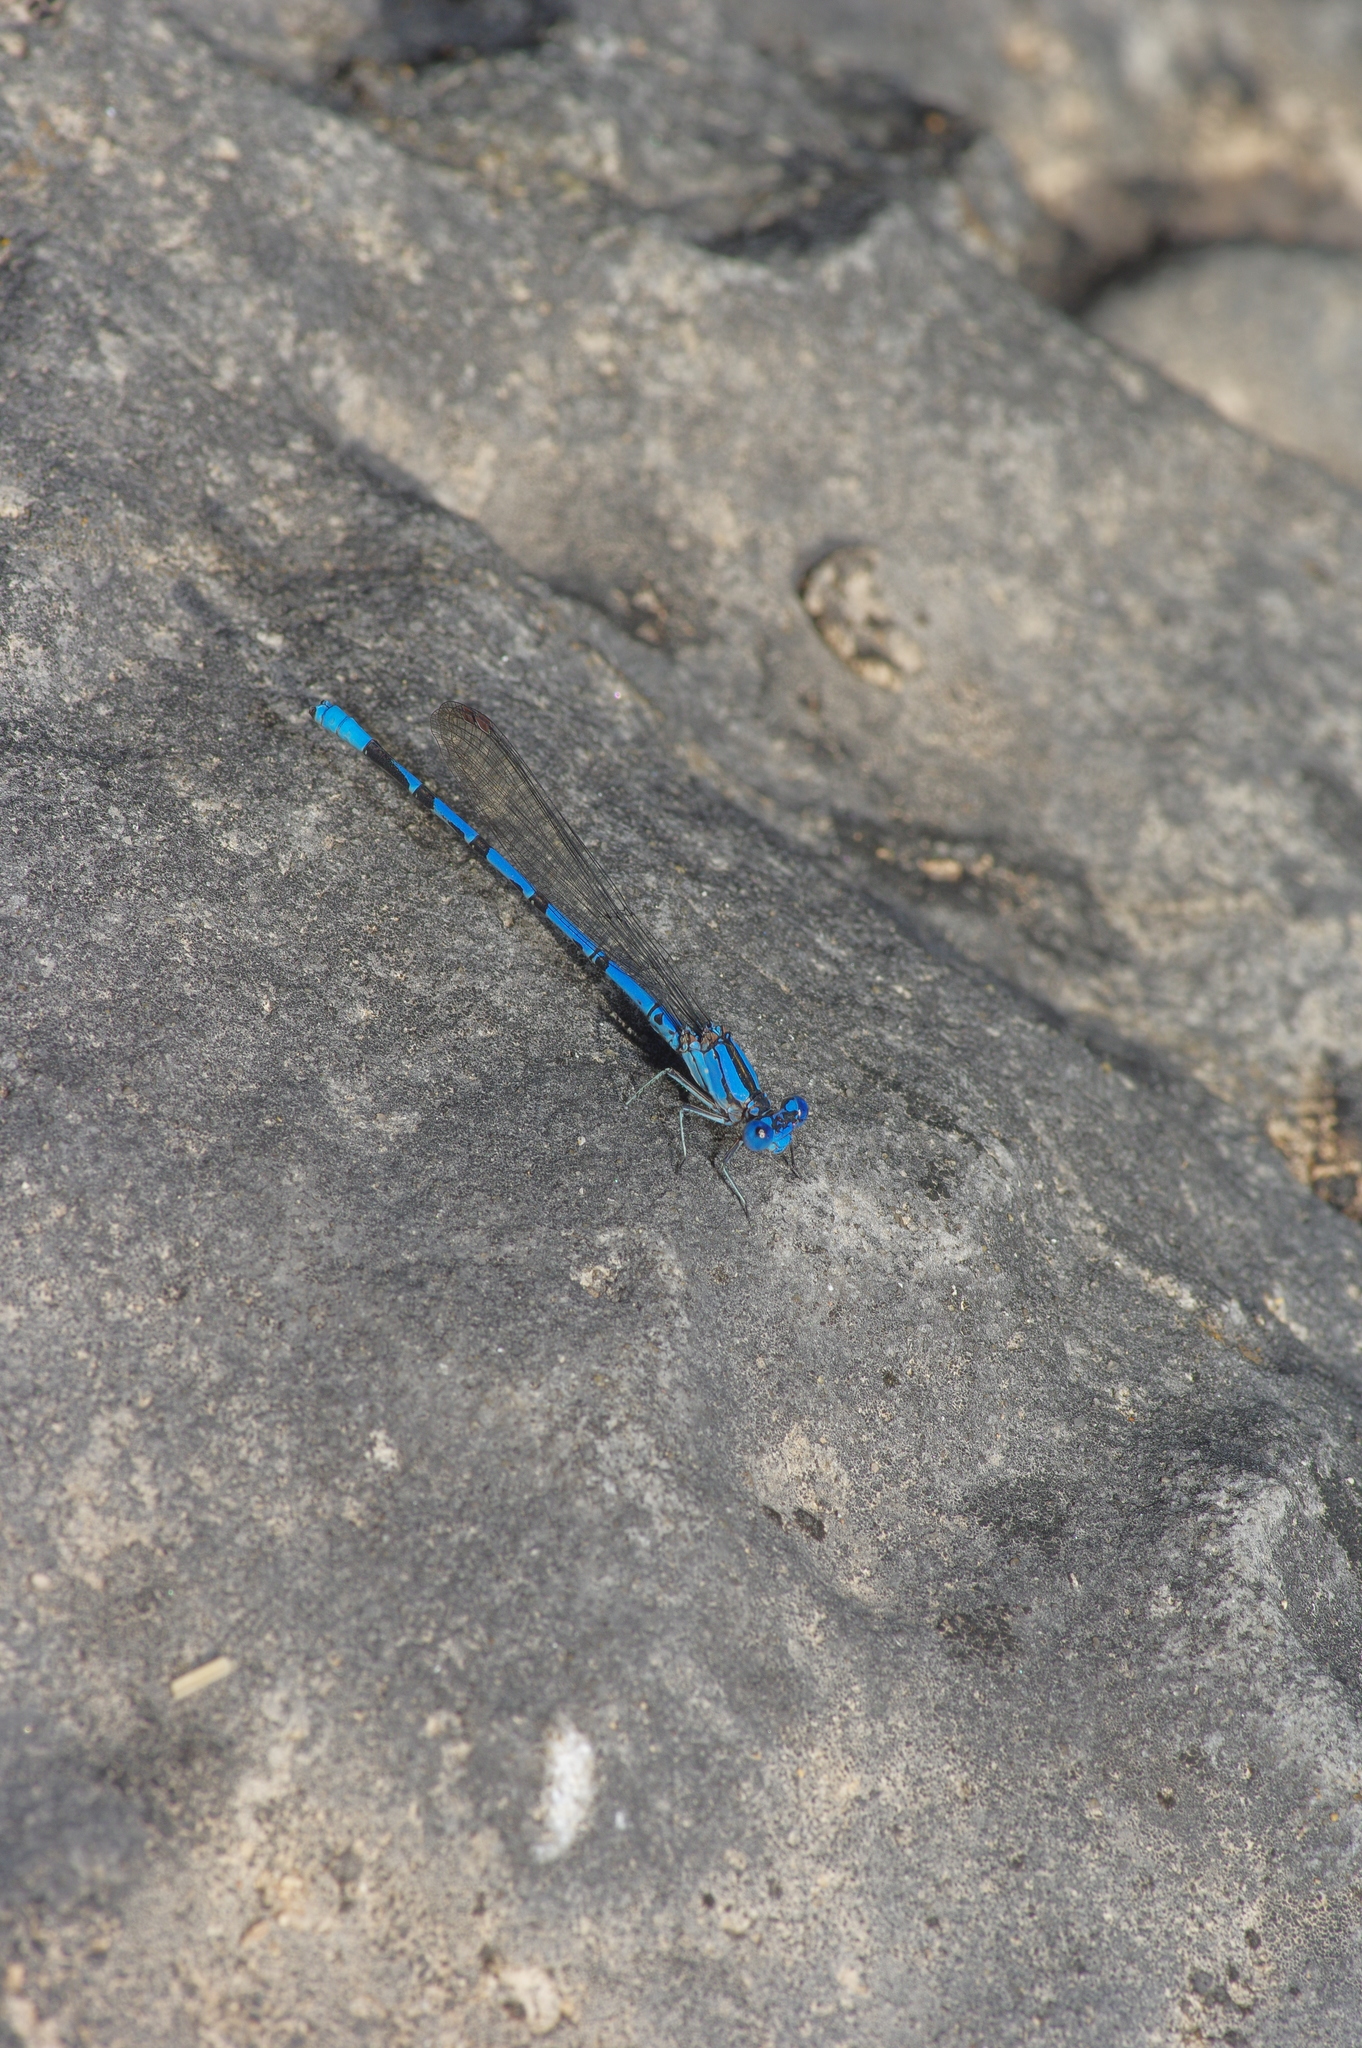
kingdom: Animalia
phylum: Arthropoda
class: Insecta
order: Odonata
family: Coenagrionidae
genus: Argia
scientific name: Argia funebris
